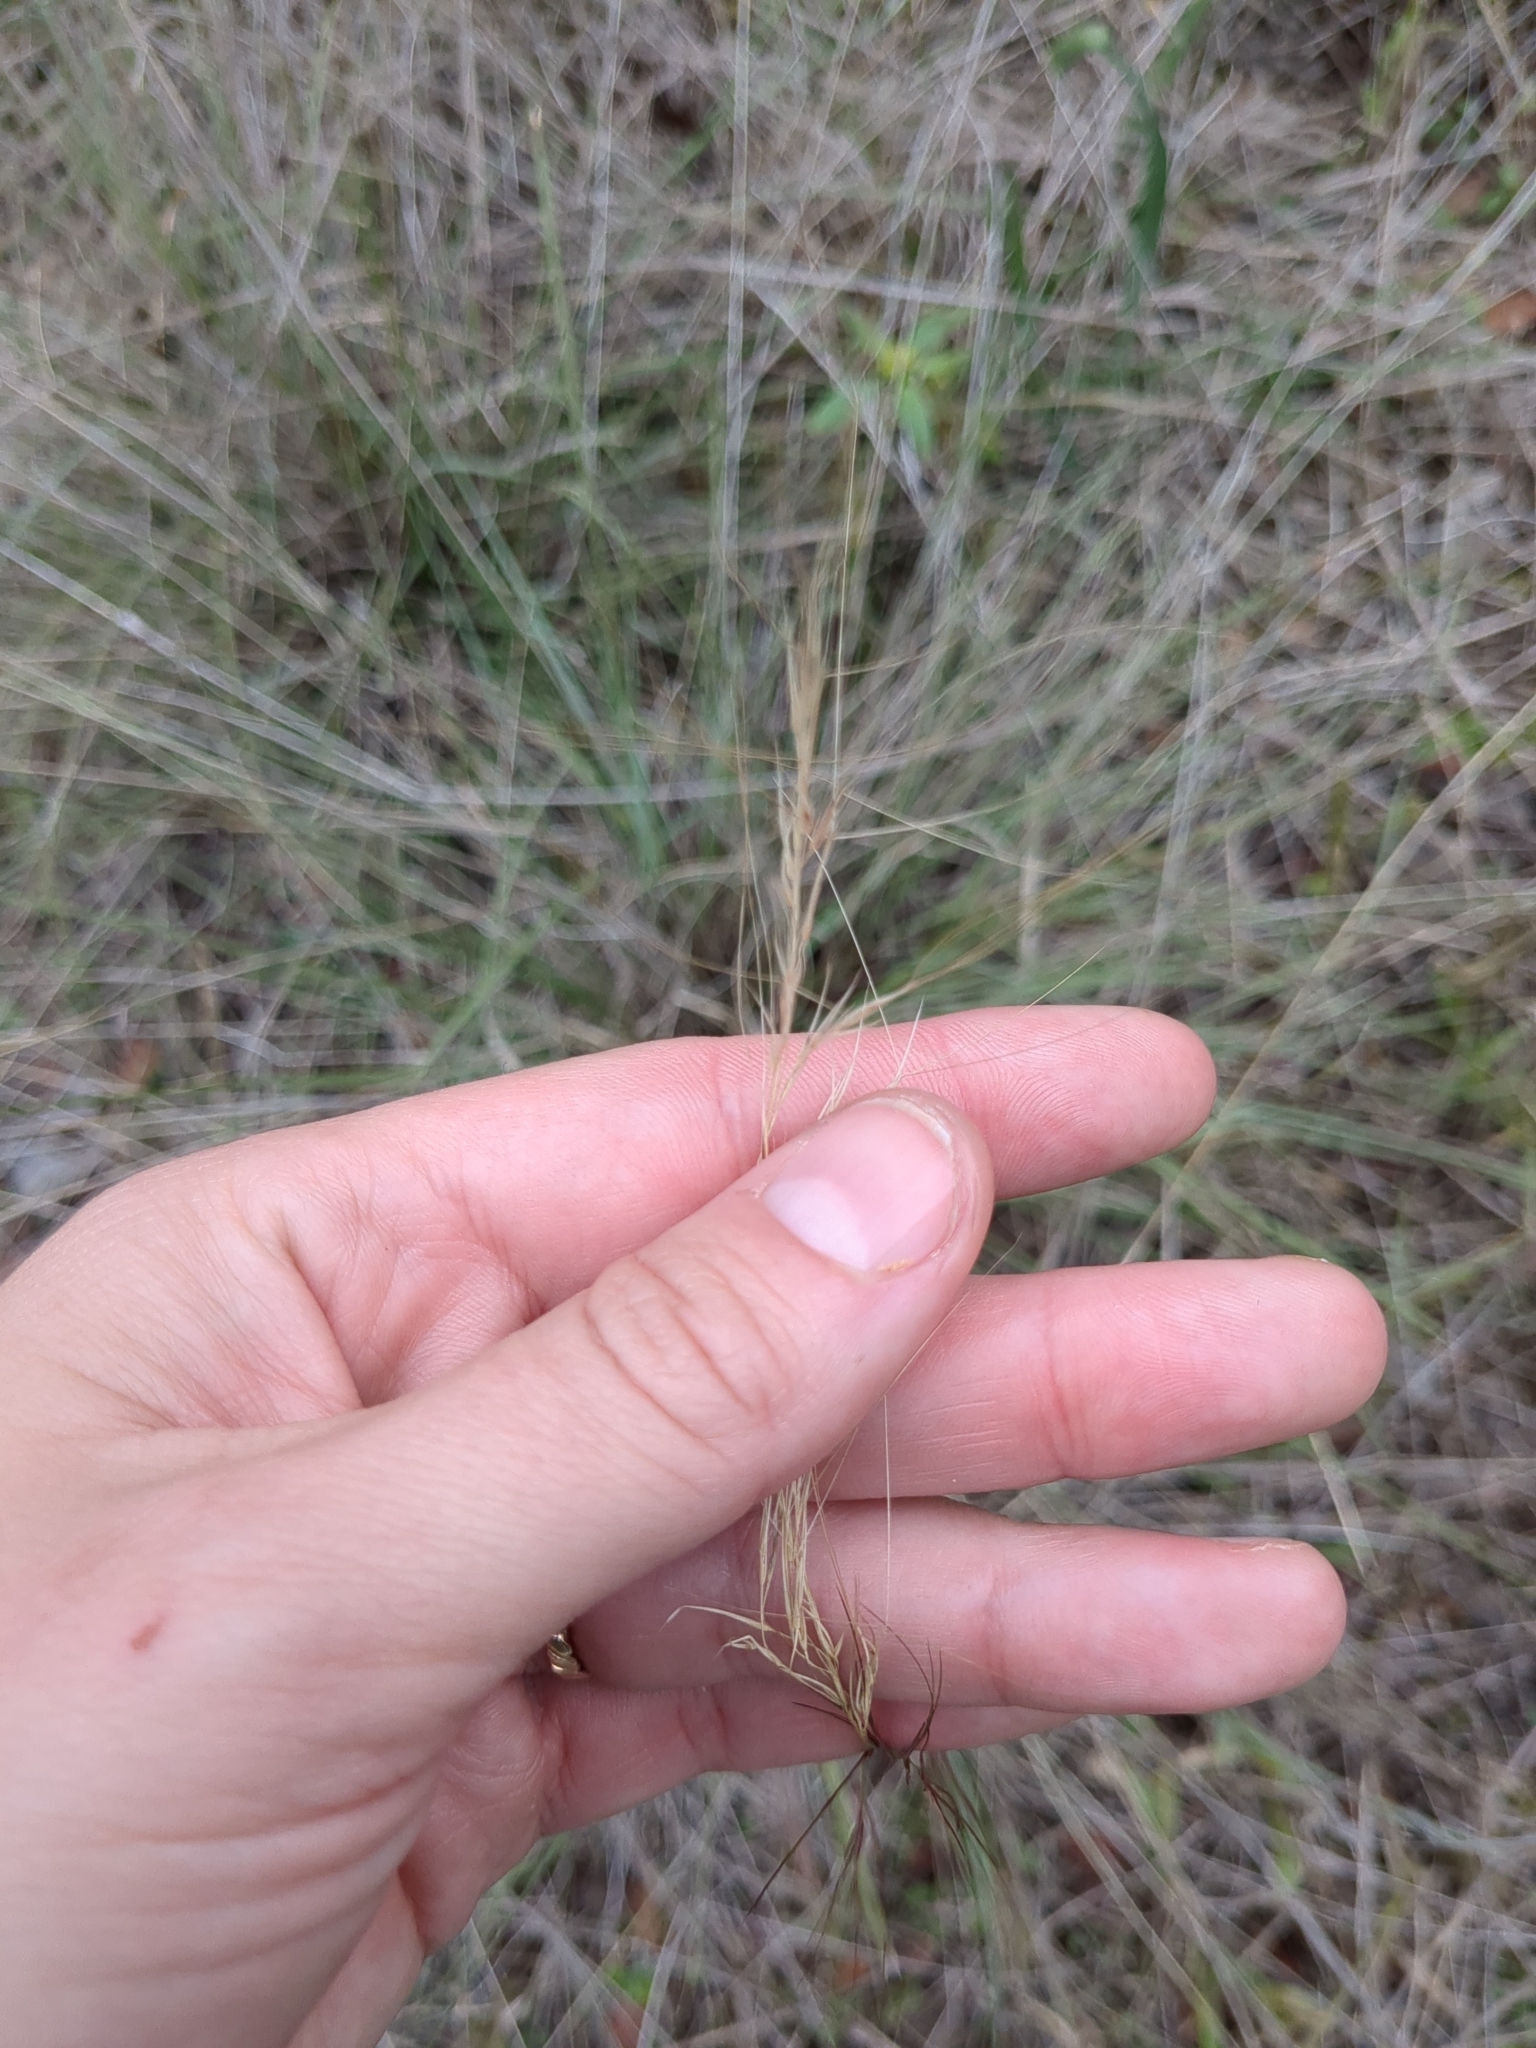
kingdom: Plantae
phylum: Tracheophyta
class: Liliopsida
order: Poales
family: Poaceae
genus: Aristida
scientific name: Aristida purpurea
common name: Purple threeawn
